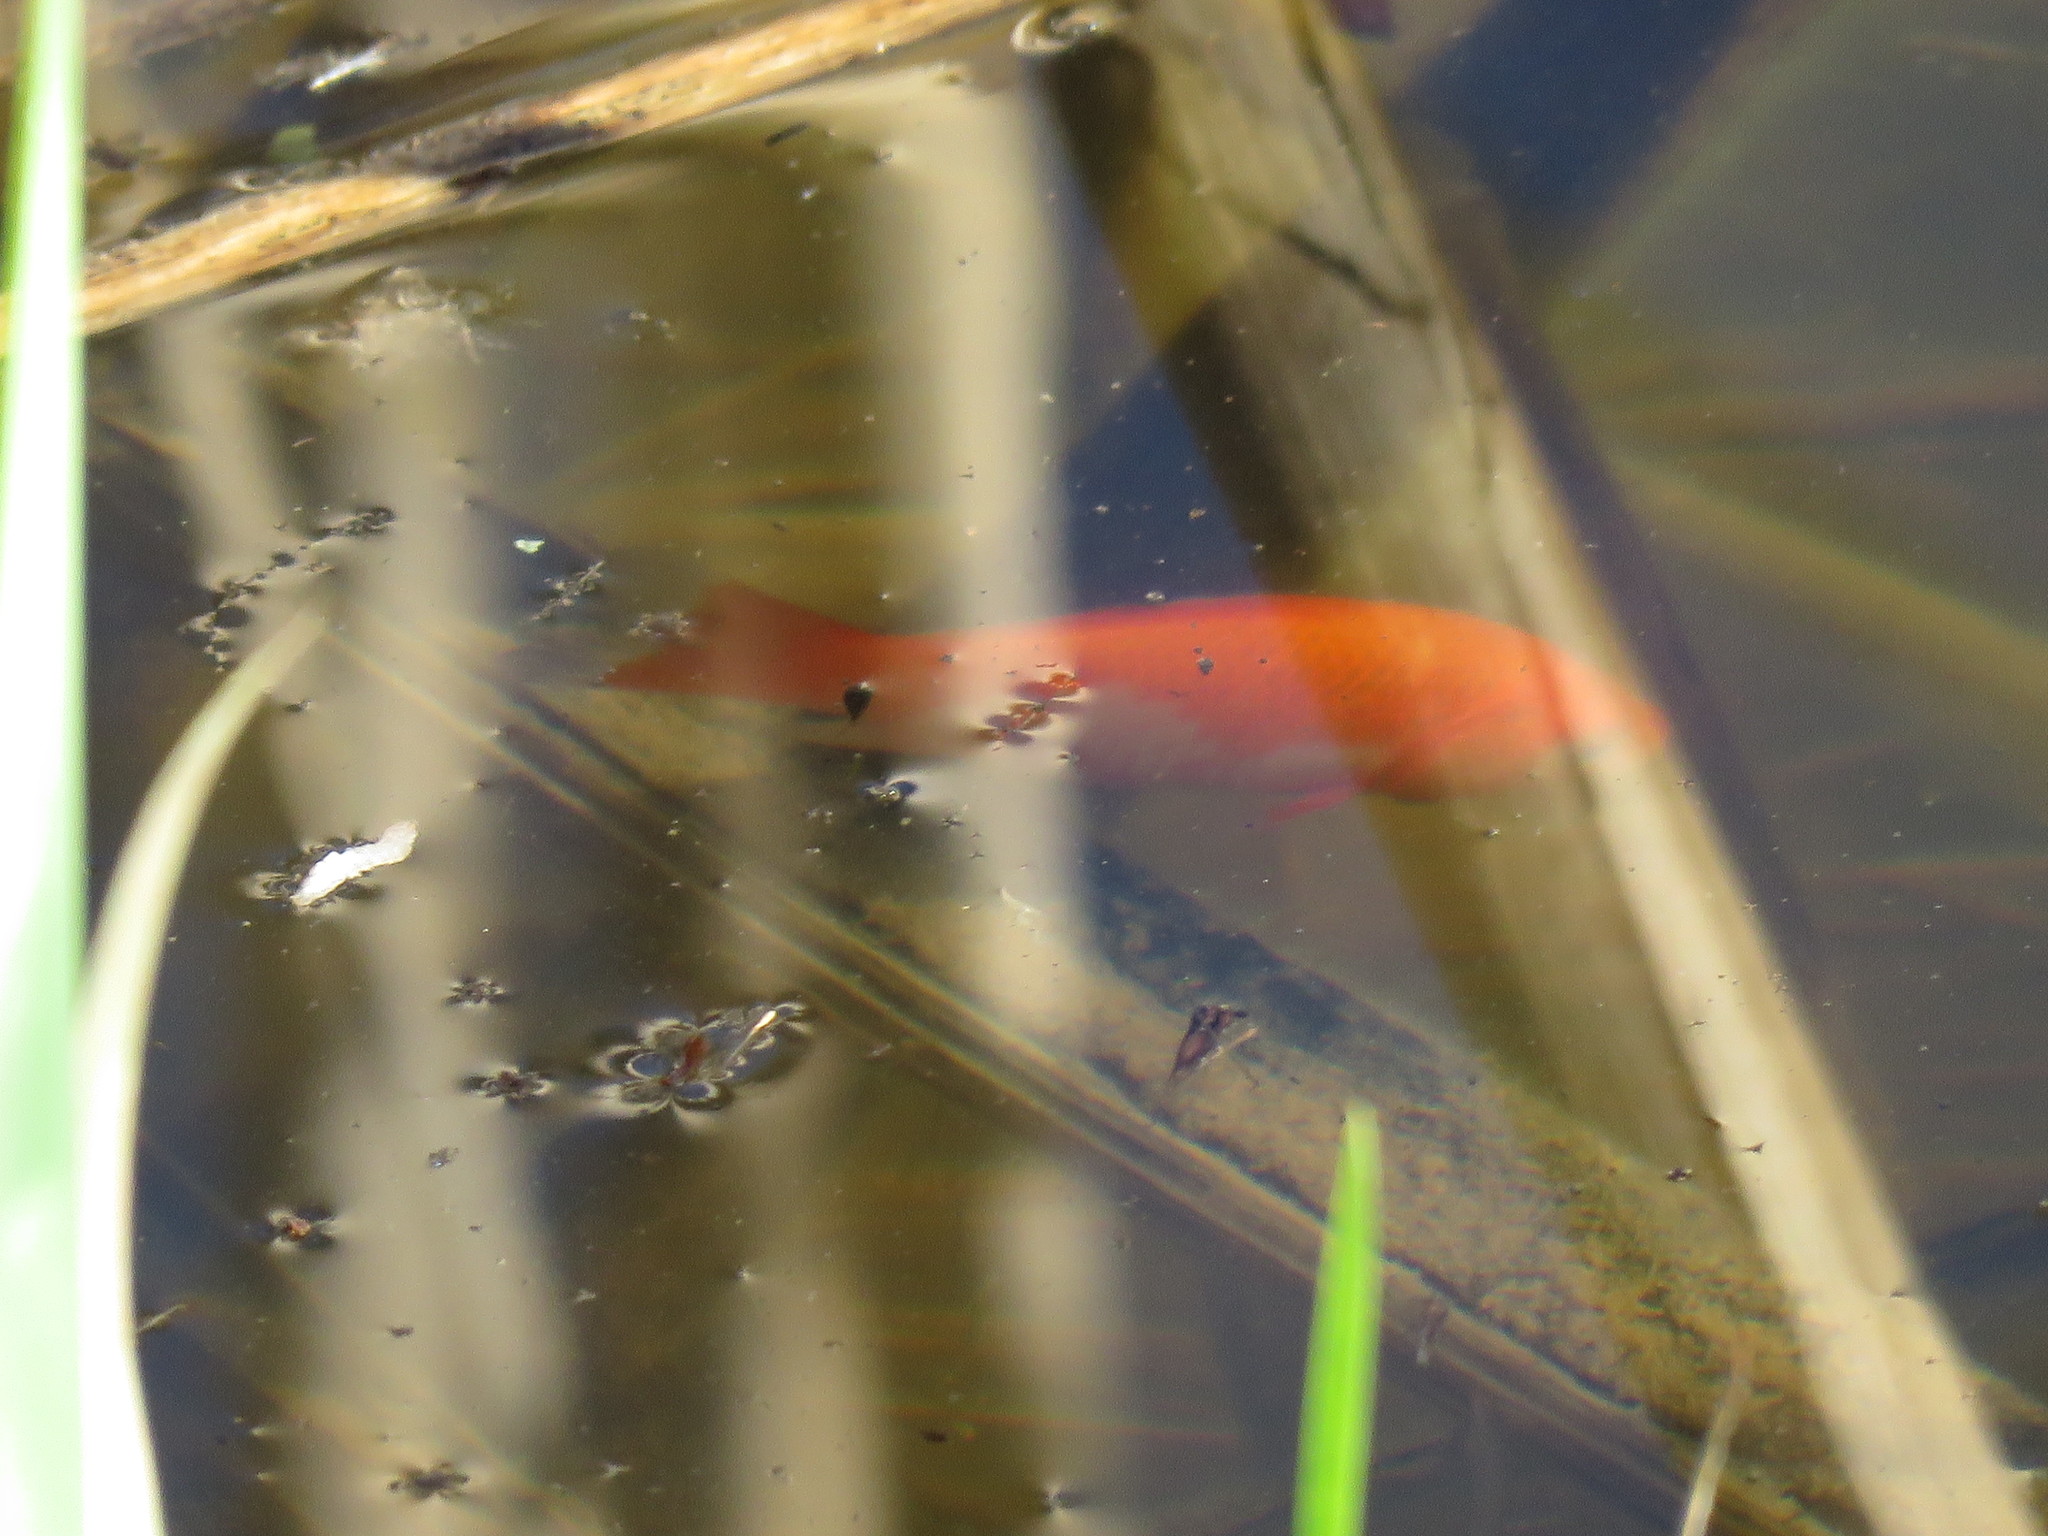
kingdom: Animalia
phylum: Chordata
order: Cypriniformes
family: Cyprinidae
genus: Carassius
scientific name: Carassius auratus
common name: Goldfish
